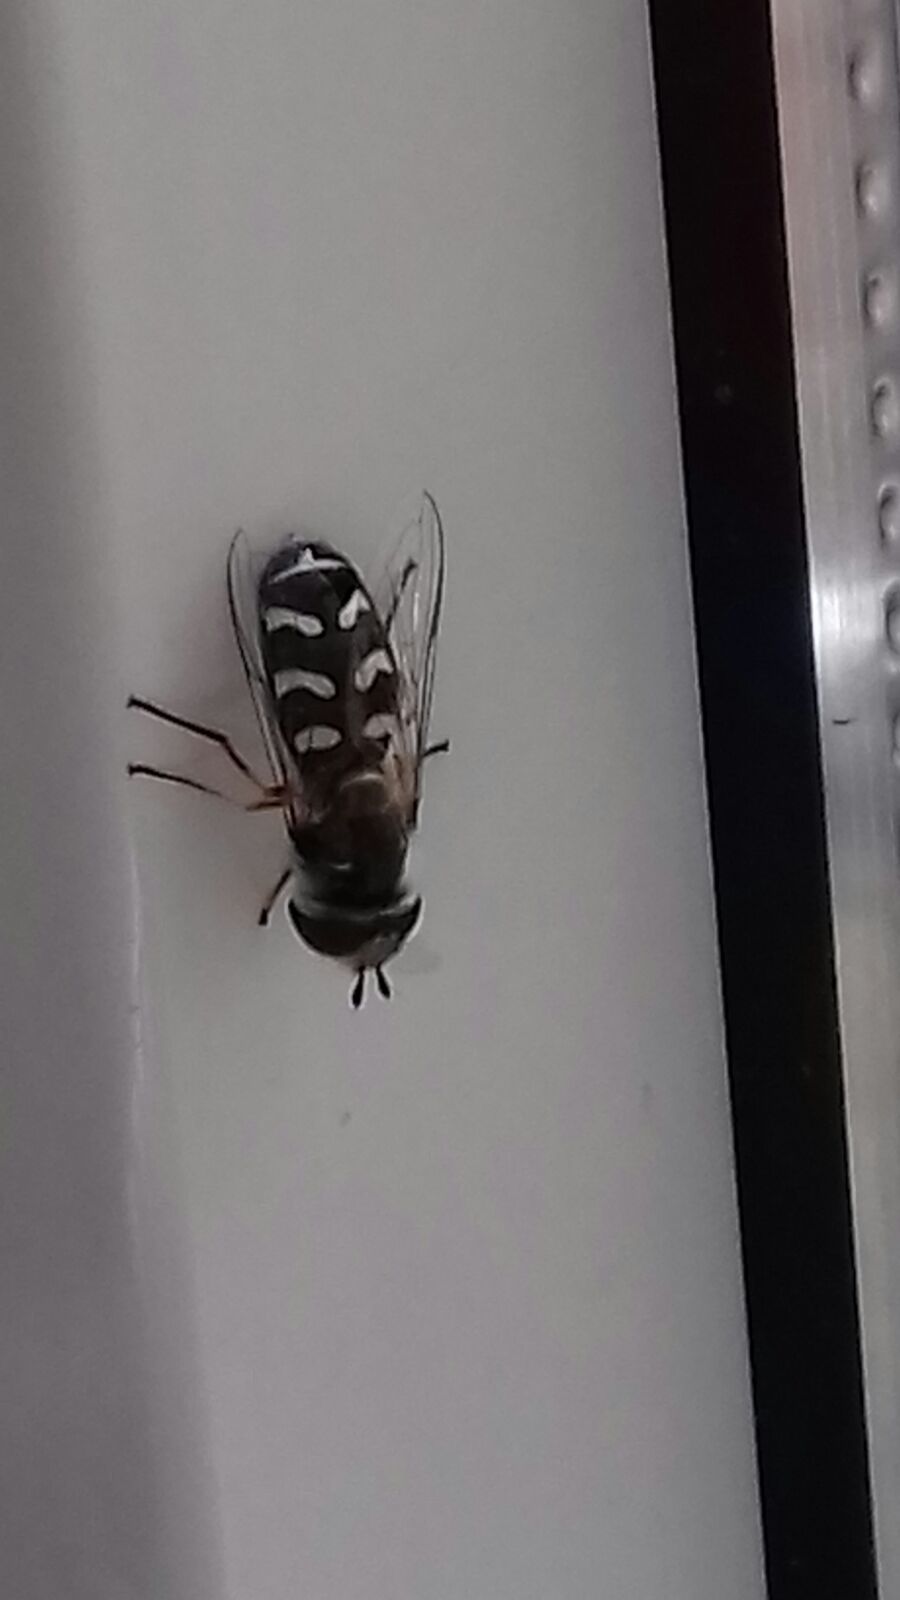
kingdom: Animalia
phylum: Arthropoda
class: Insecta
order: Diptera
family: Syrphidae
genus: Scaeva
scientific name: Scaeva pyrastri
